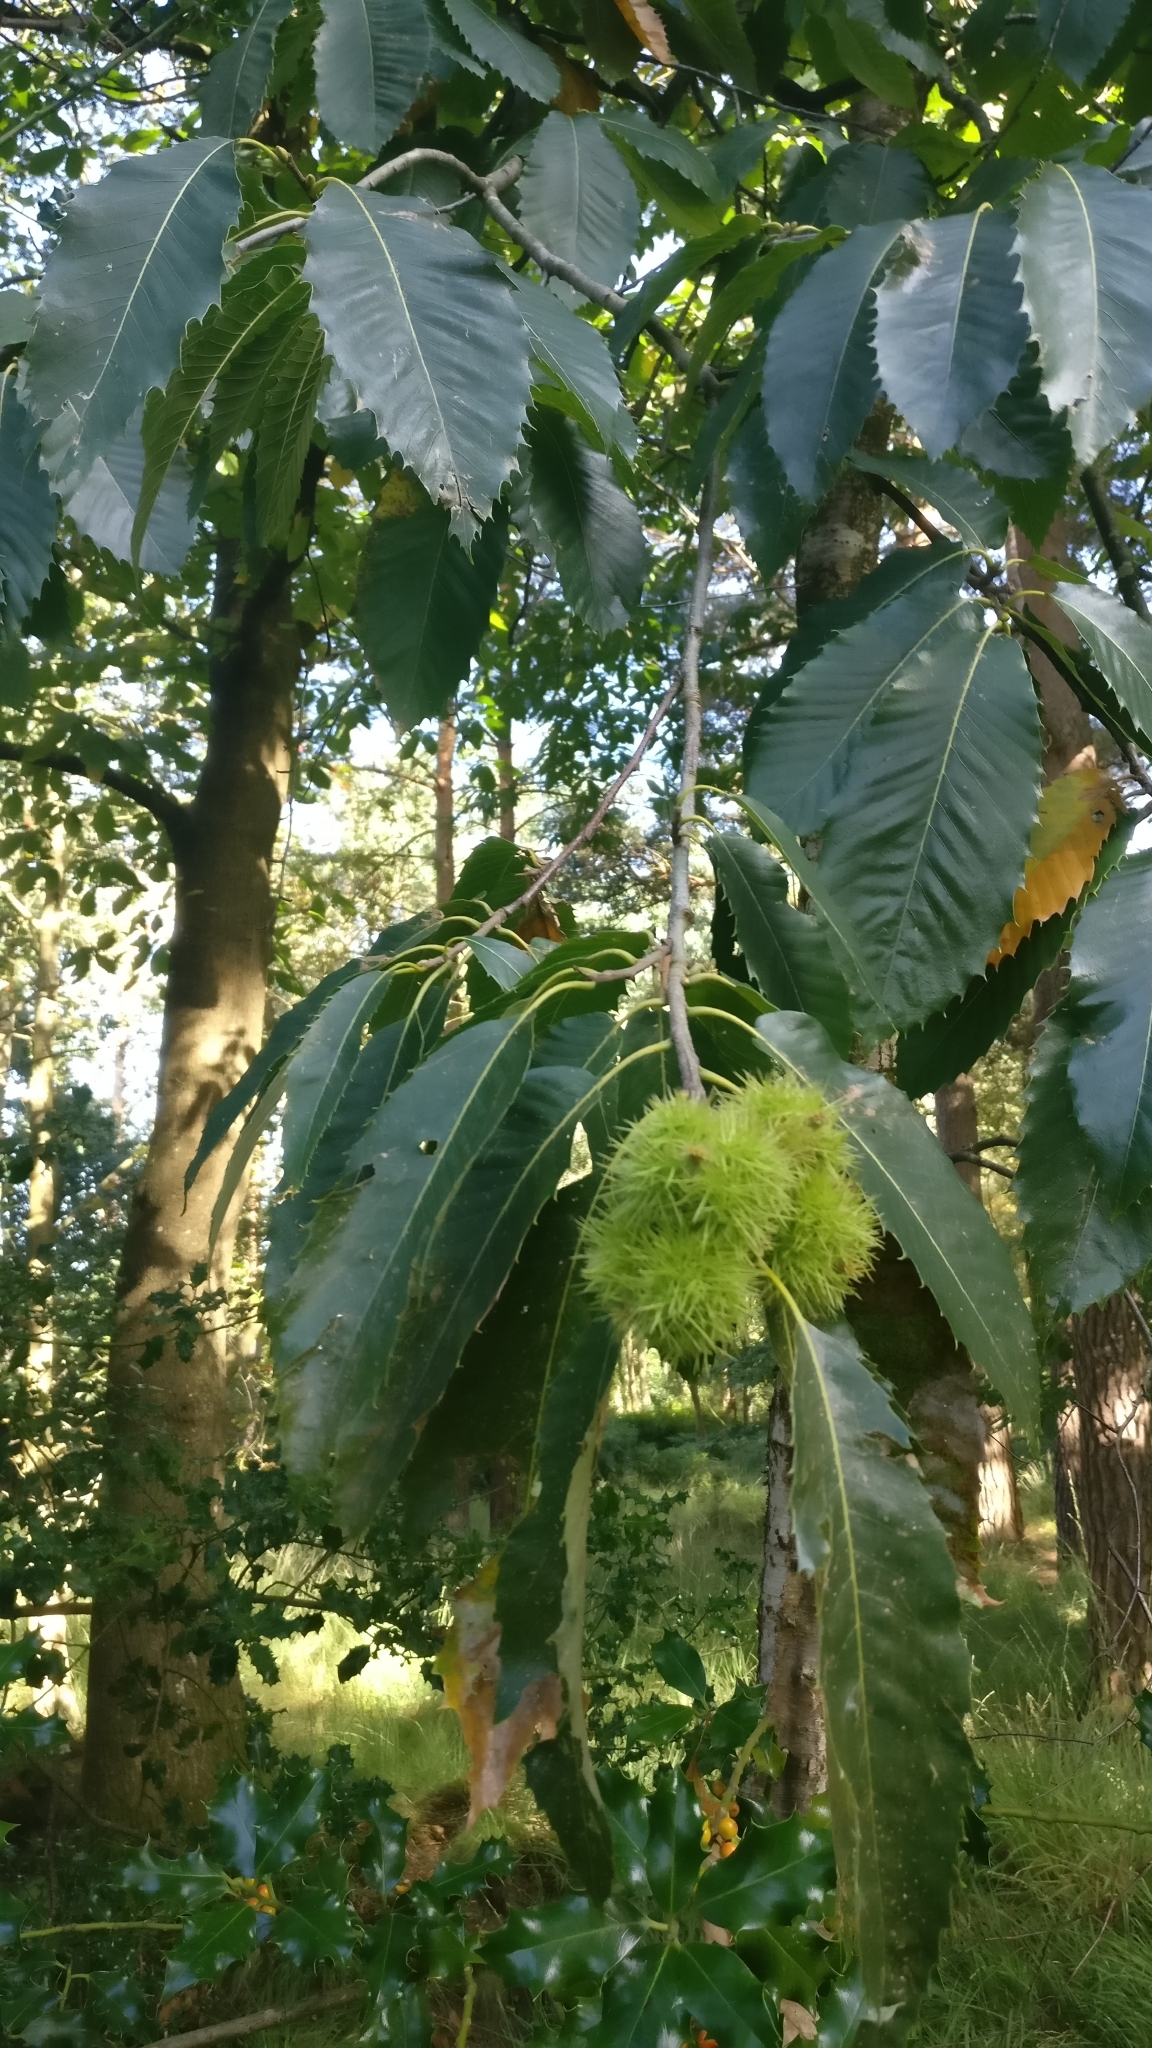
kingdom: Plantae
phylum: Tracheophyta
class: Magnoliopsida
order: Fagales
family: Fagaceae
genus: Castanea
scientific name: Castanea sativa
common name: Sweet chestnut
